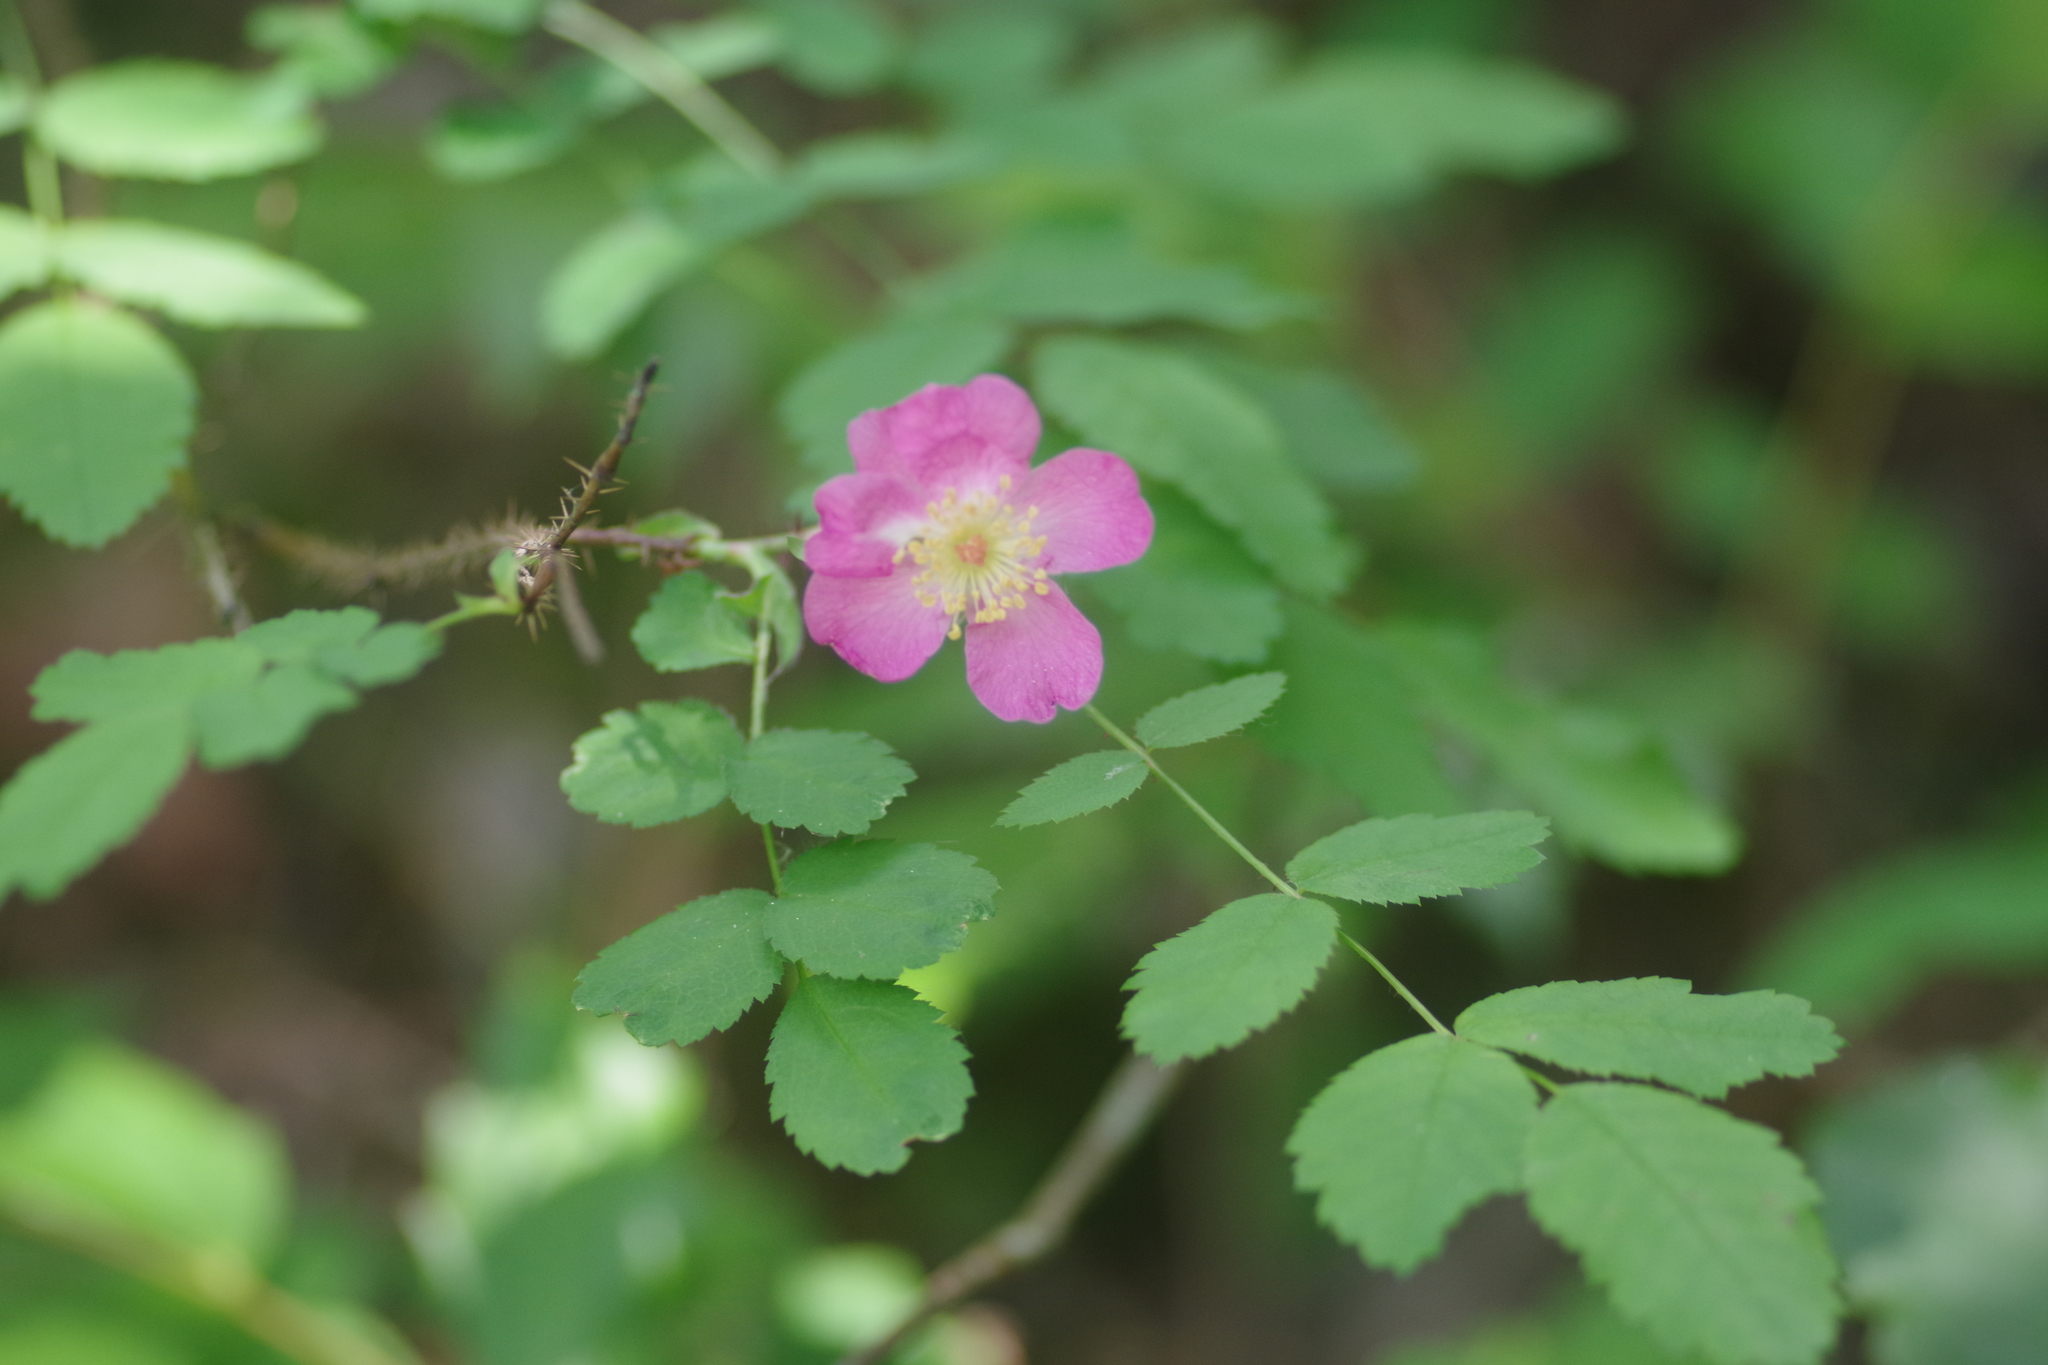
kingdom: Plantae
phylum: Tracheophyta
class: Magnoliopsida
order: Rosales
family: Rosaceae
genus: Rosa
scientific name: Rosa gymnocarpa
